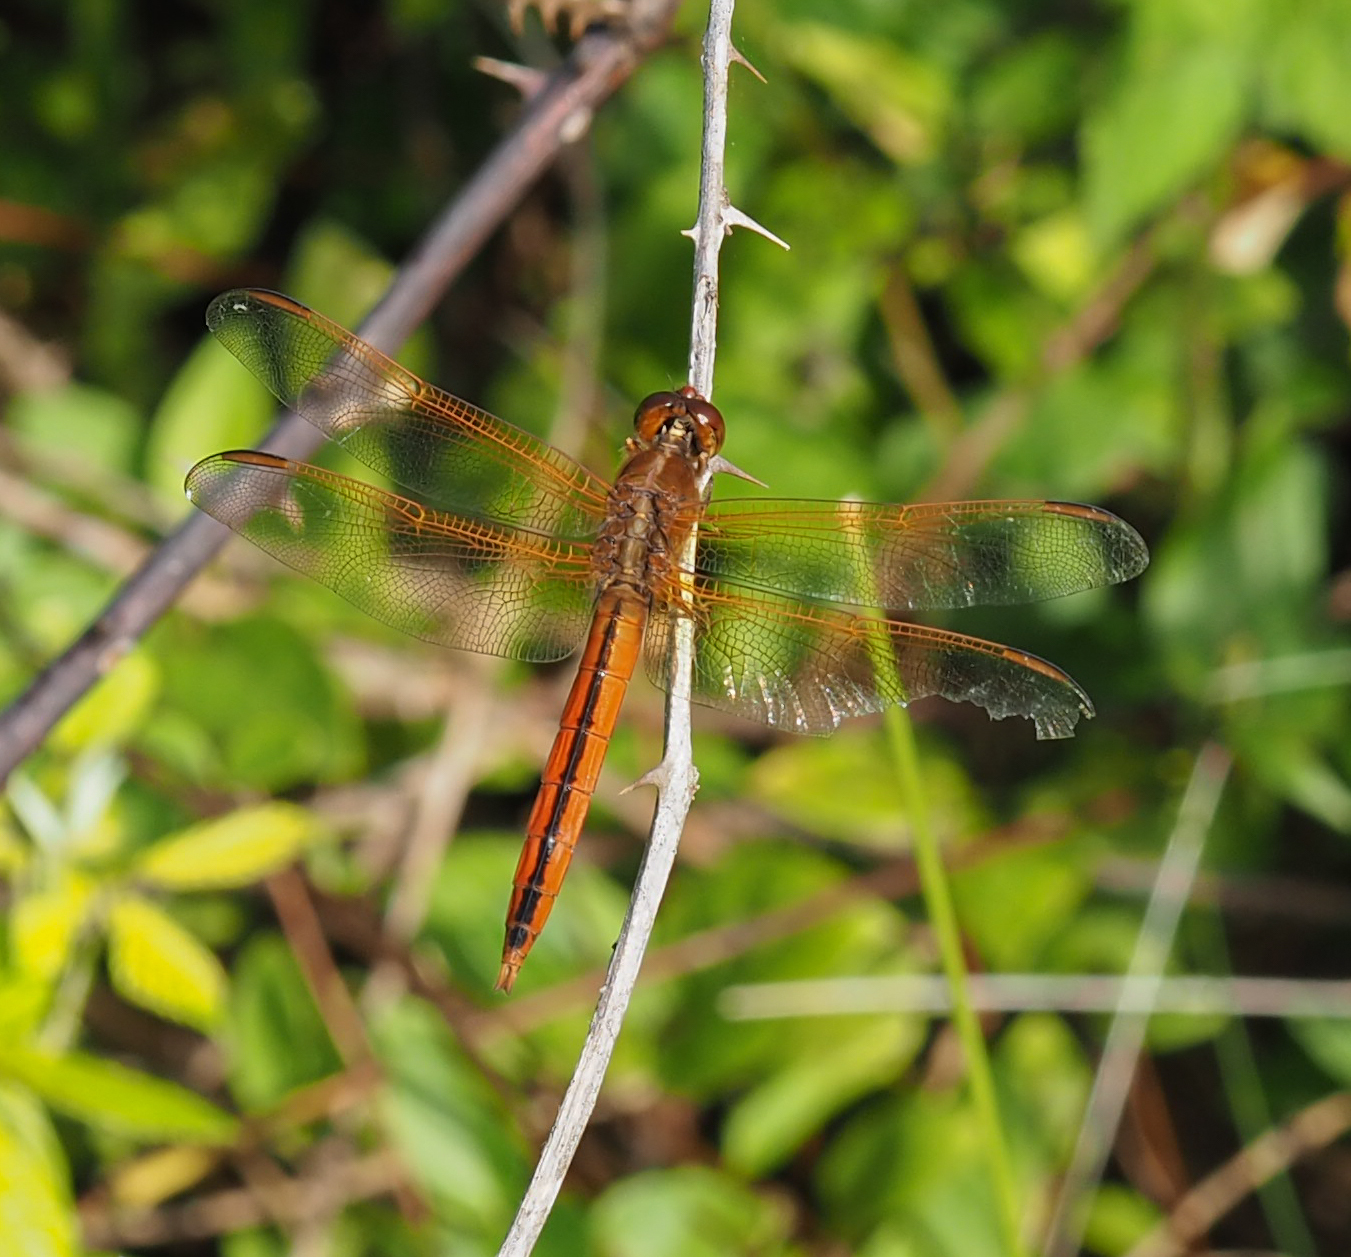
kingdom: Animalia
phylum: Arthropoda
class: Insecta
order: Odonata
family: Libellulidae
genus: Libellula
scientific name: Libellula needhami
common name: Needham's skimmer
